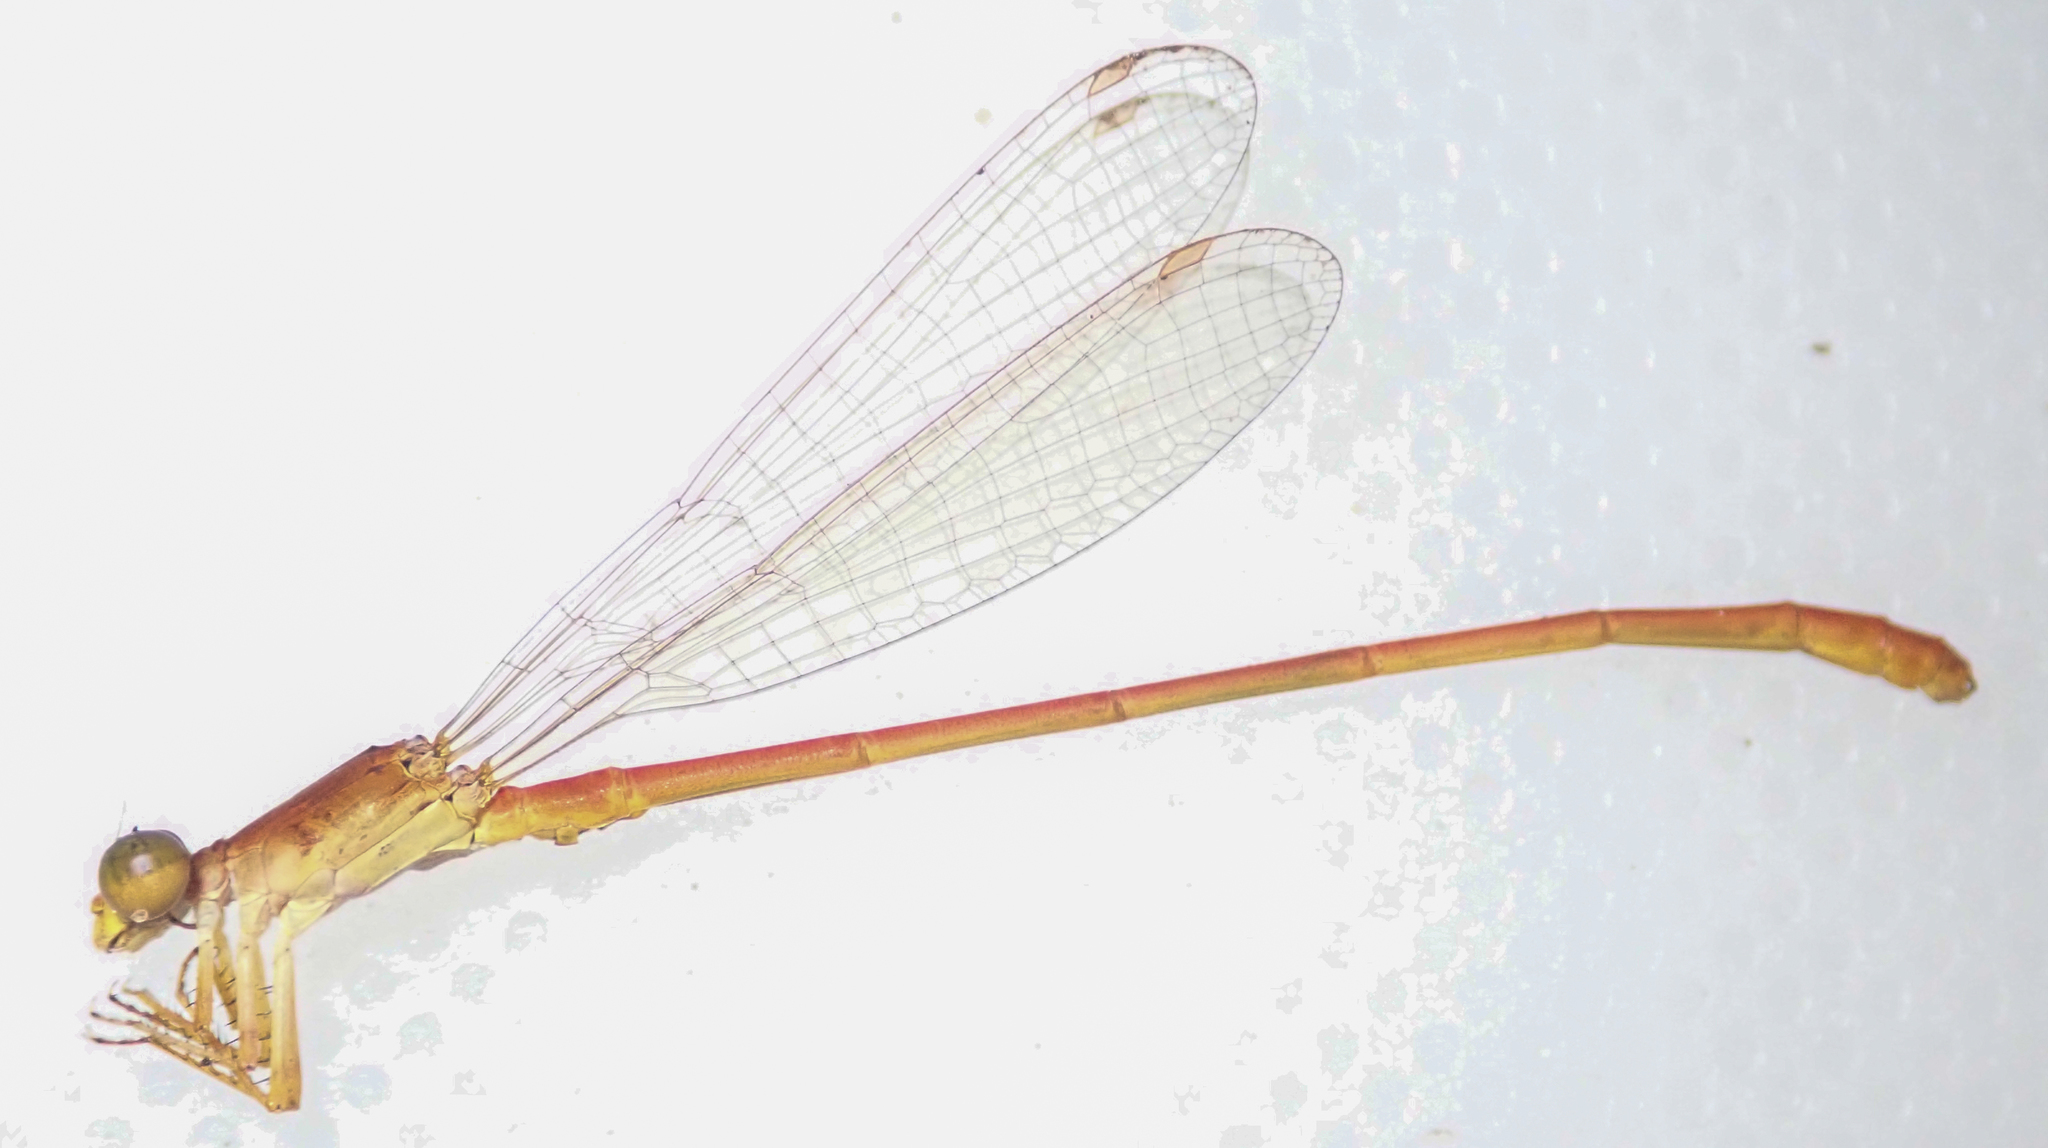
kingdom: Animalia
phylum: Arthropoda
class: Insecta
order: Odonata
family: Coenagrionidae
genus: Ceriagrion
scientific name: Ceriagrion suave
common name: Plain waxtail
